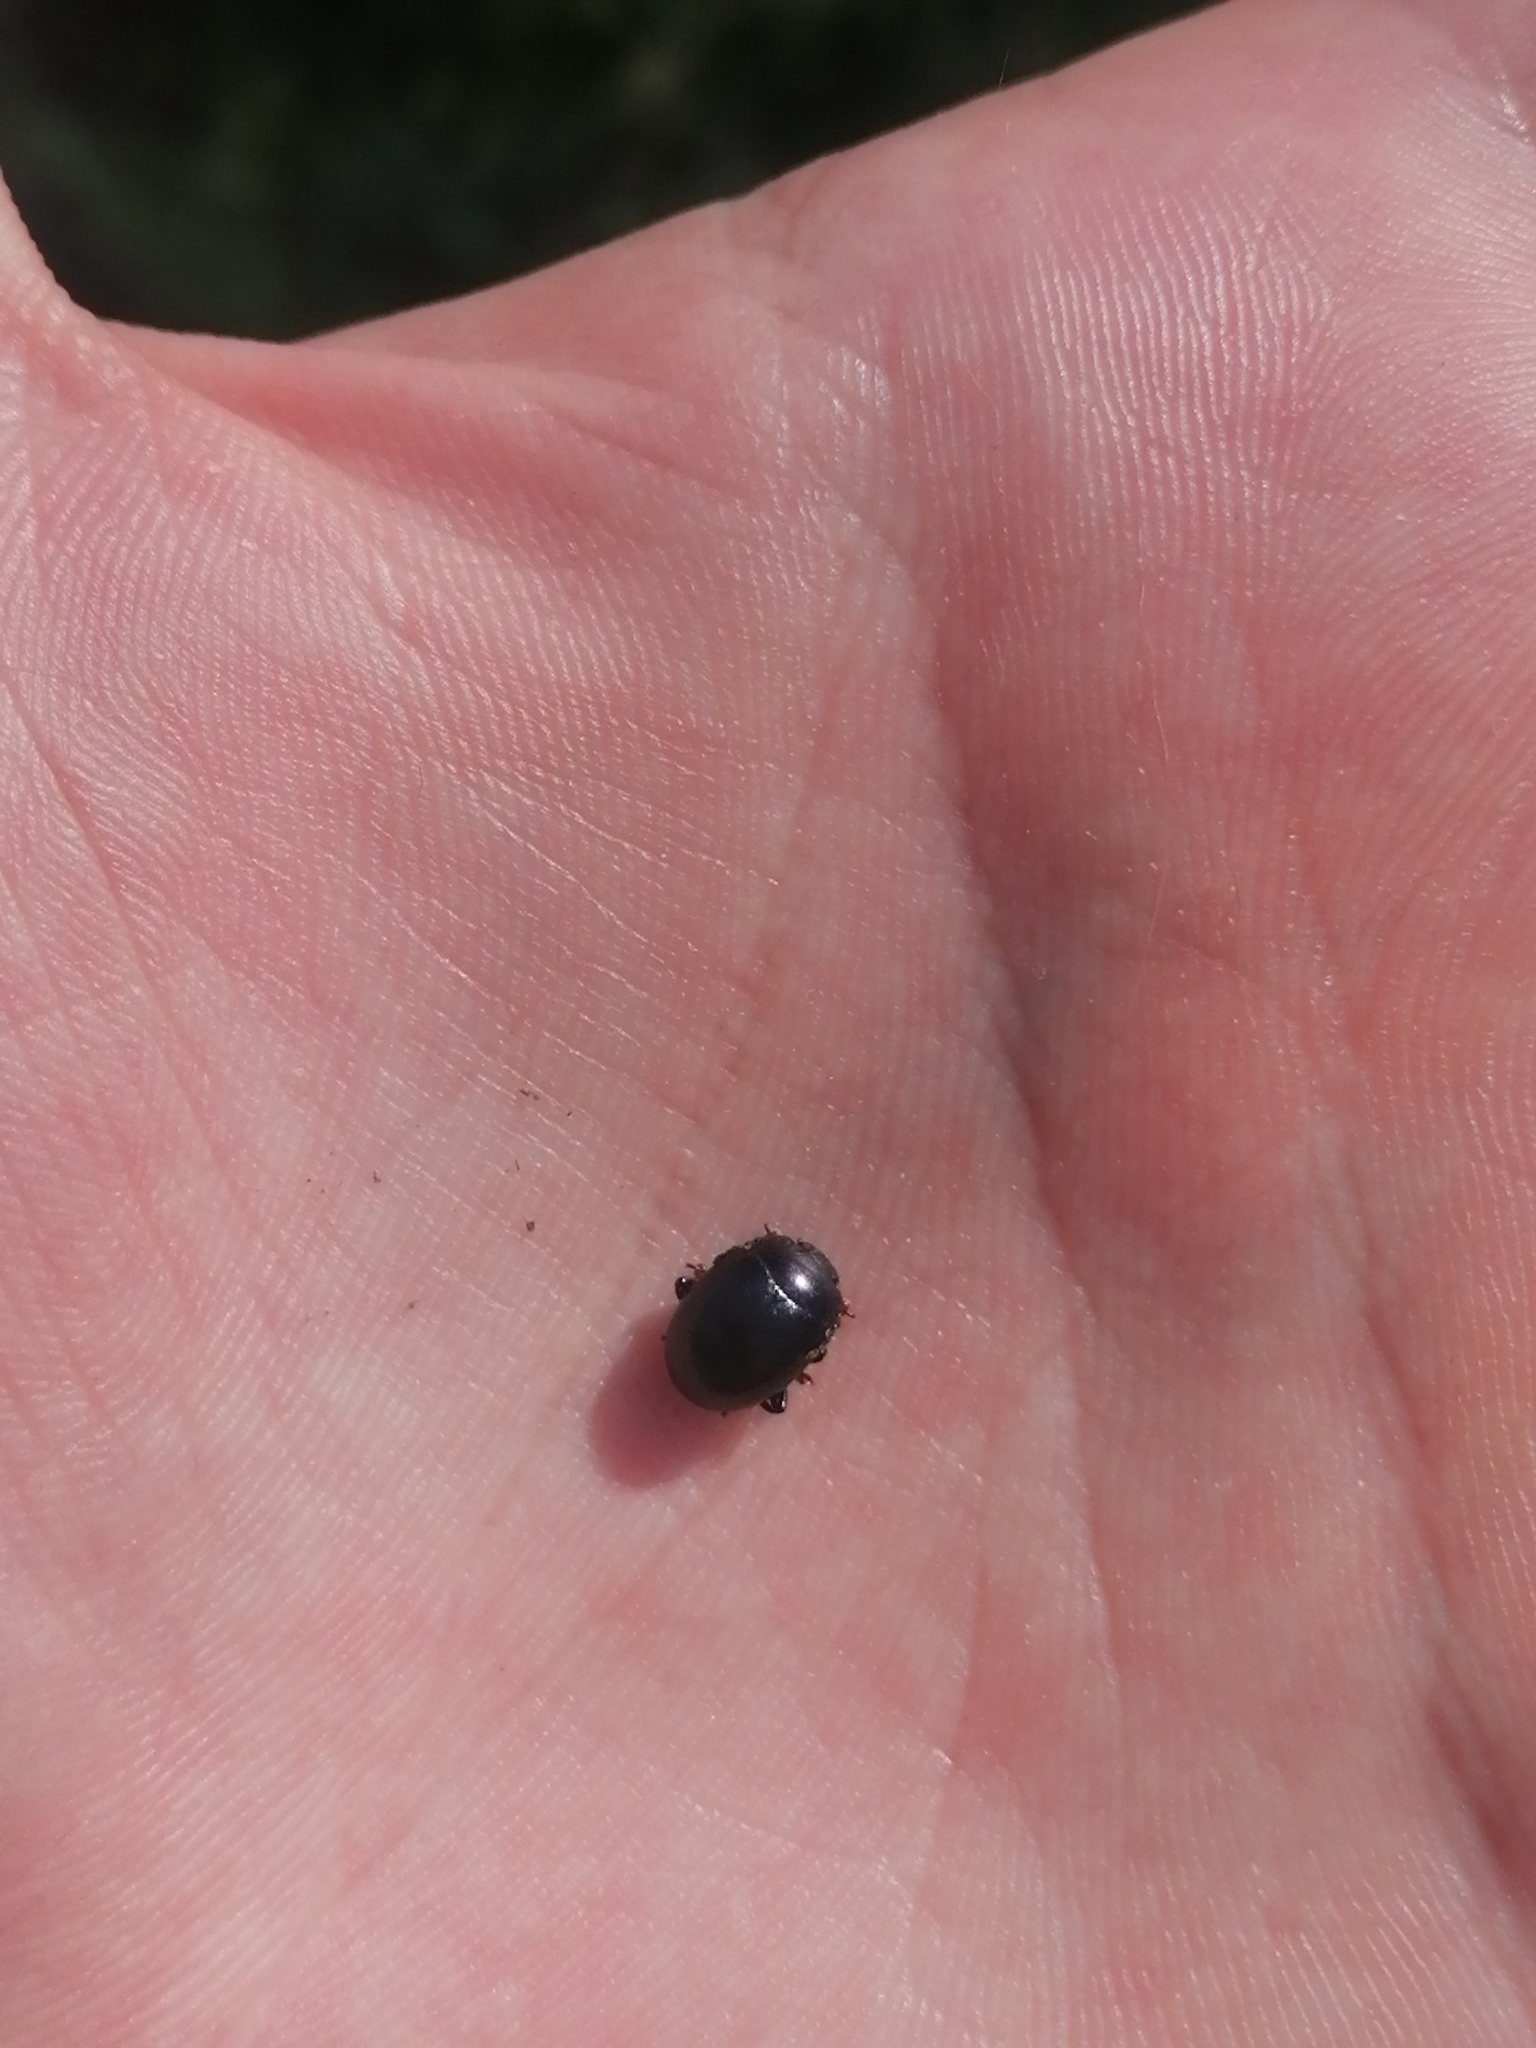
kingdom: Animalia
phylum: Arthropoda
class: Insecta
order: Coleoptera
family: Chrysomelidae
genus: Chrysolina
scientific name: Chrysolina sturmi
